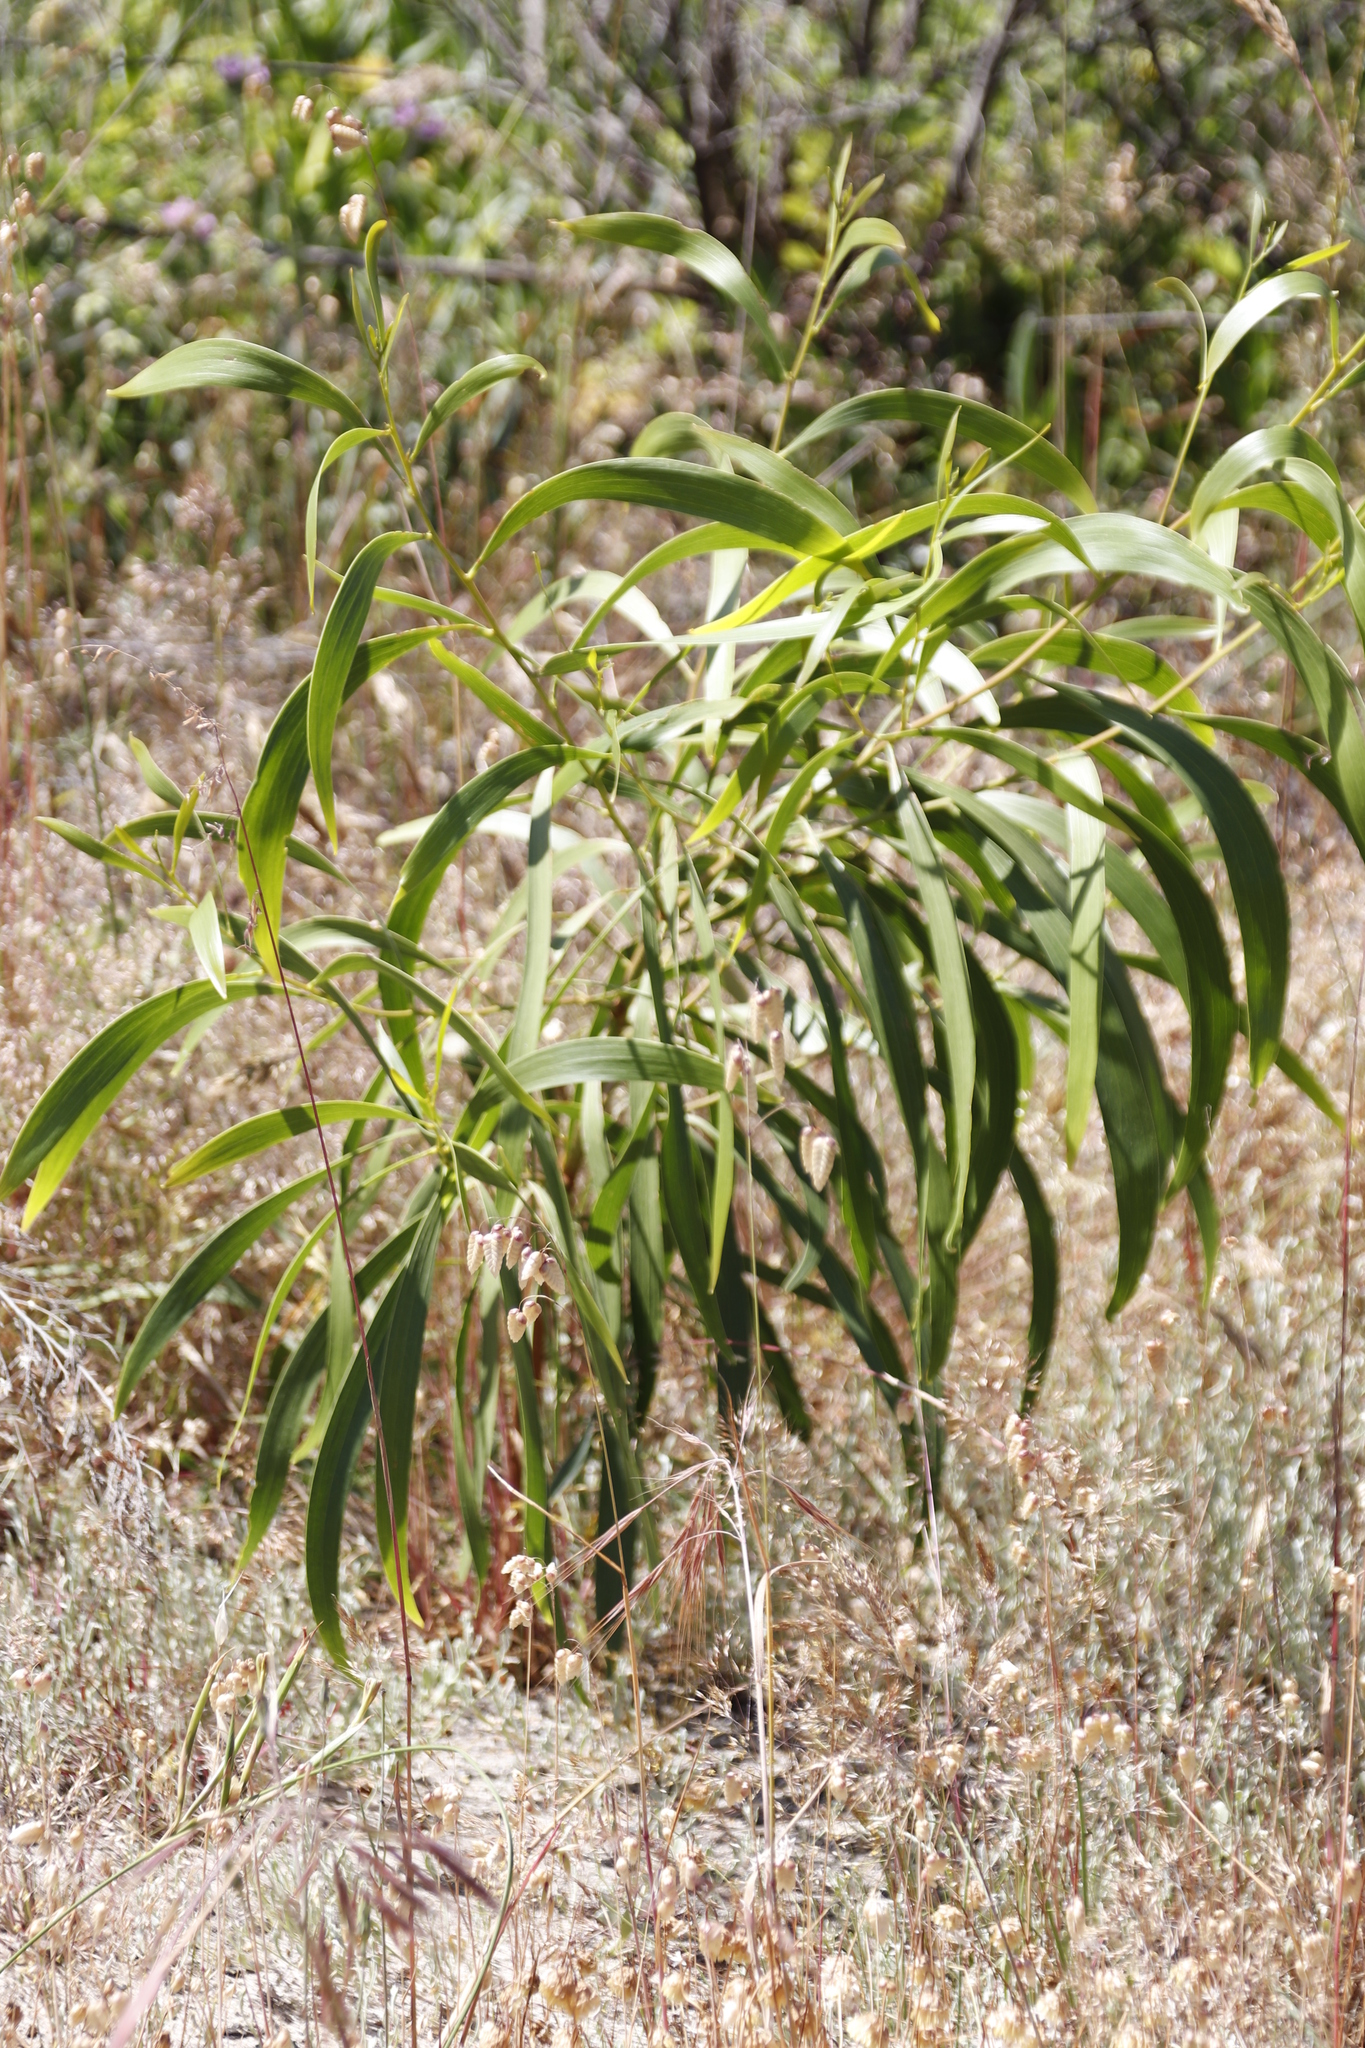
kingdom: Plantae
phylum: Tracheophyta
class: Magnoliopsida
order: Fabales
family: Fabaceae
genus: Acacia
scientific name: Acacia implexa
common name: Black wattle
